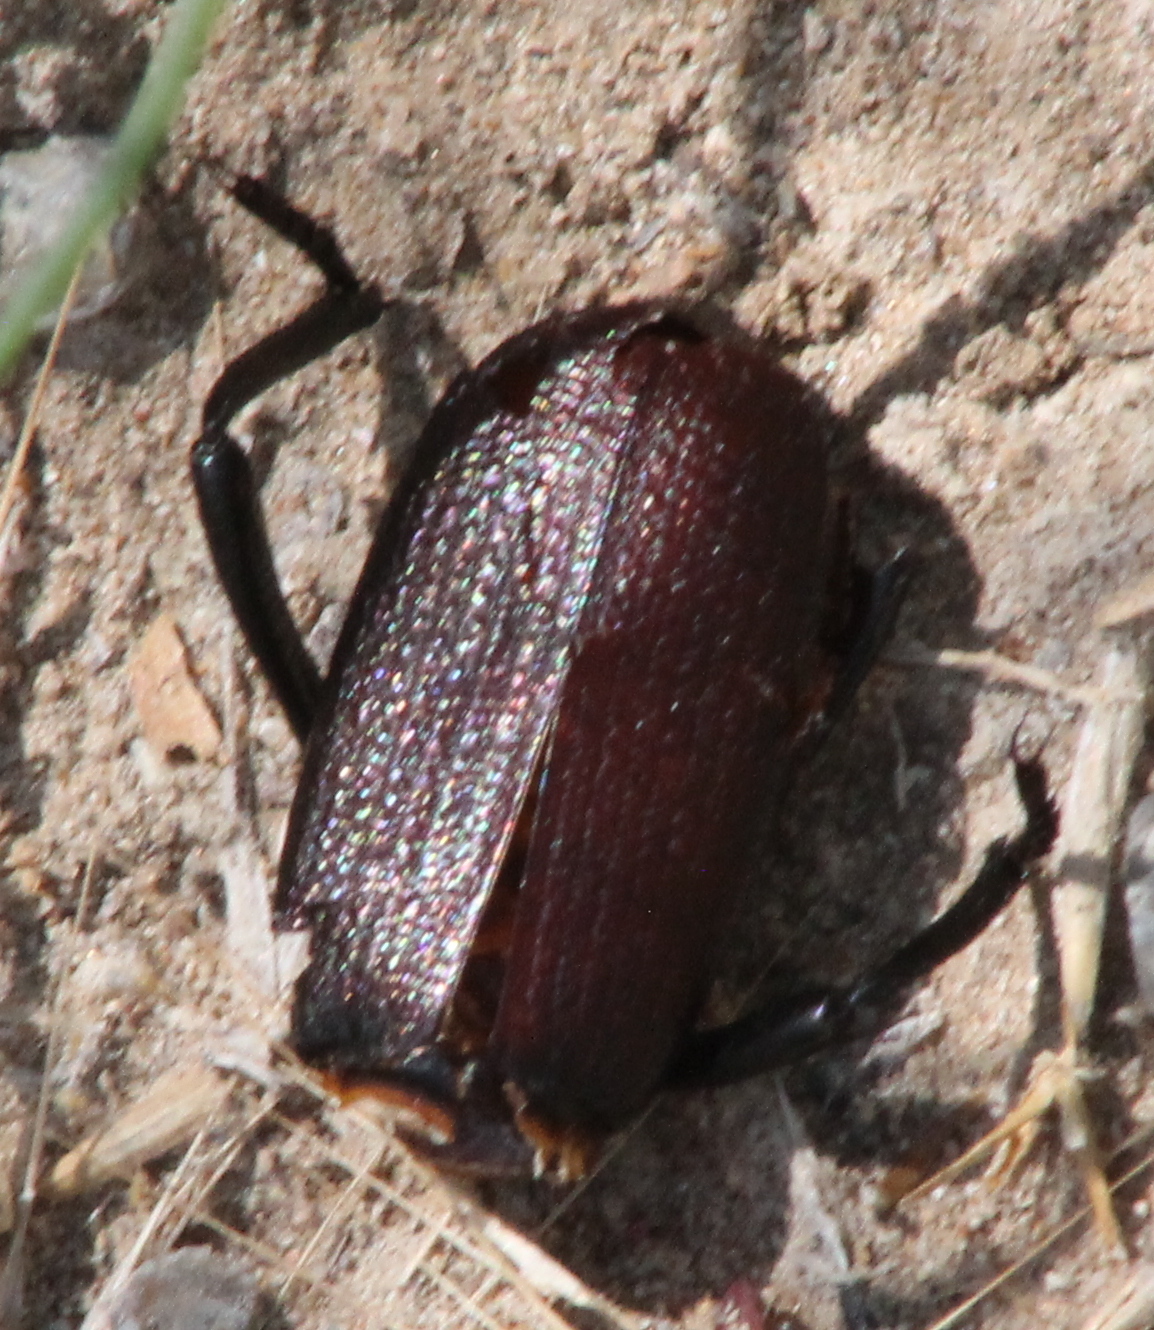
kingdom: Animalia
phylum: Arthropoda
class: Insecta
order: Coleoptera
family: Tenebrionidae
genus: Eleodes
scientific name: Eleodes obscura
